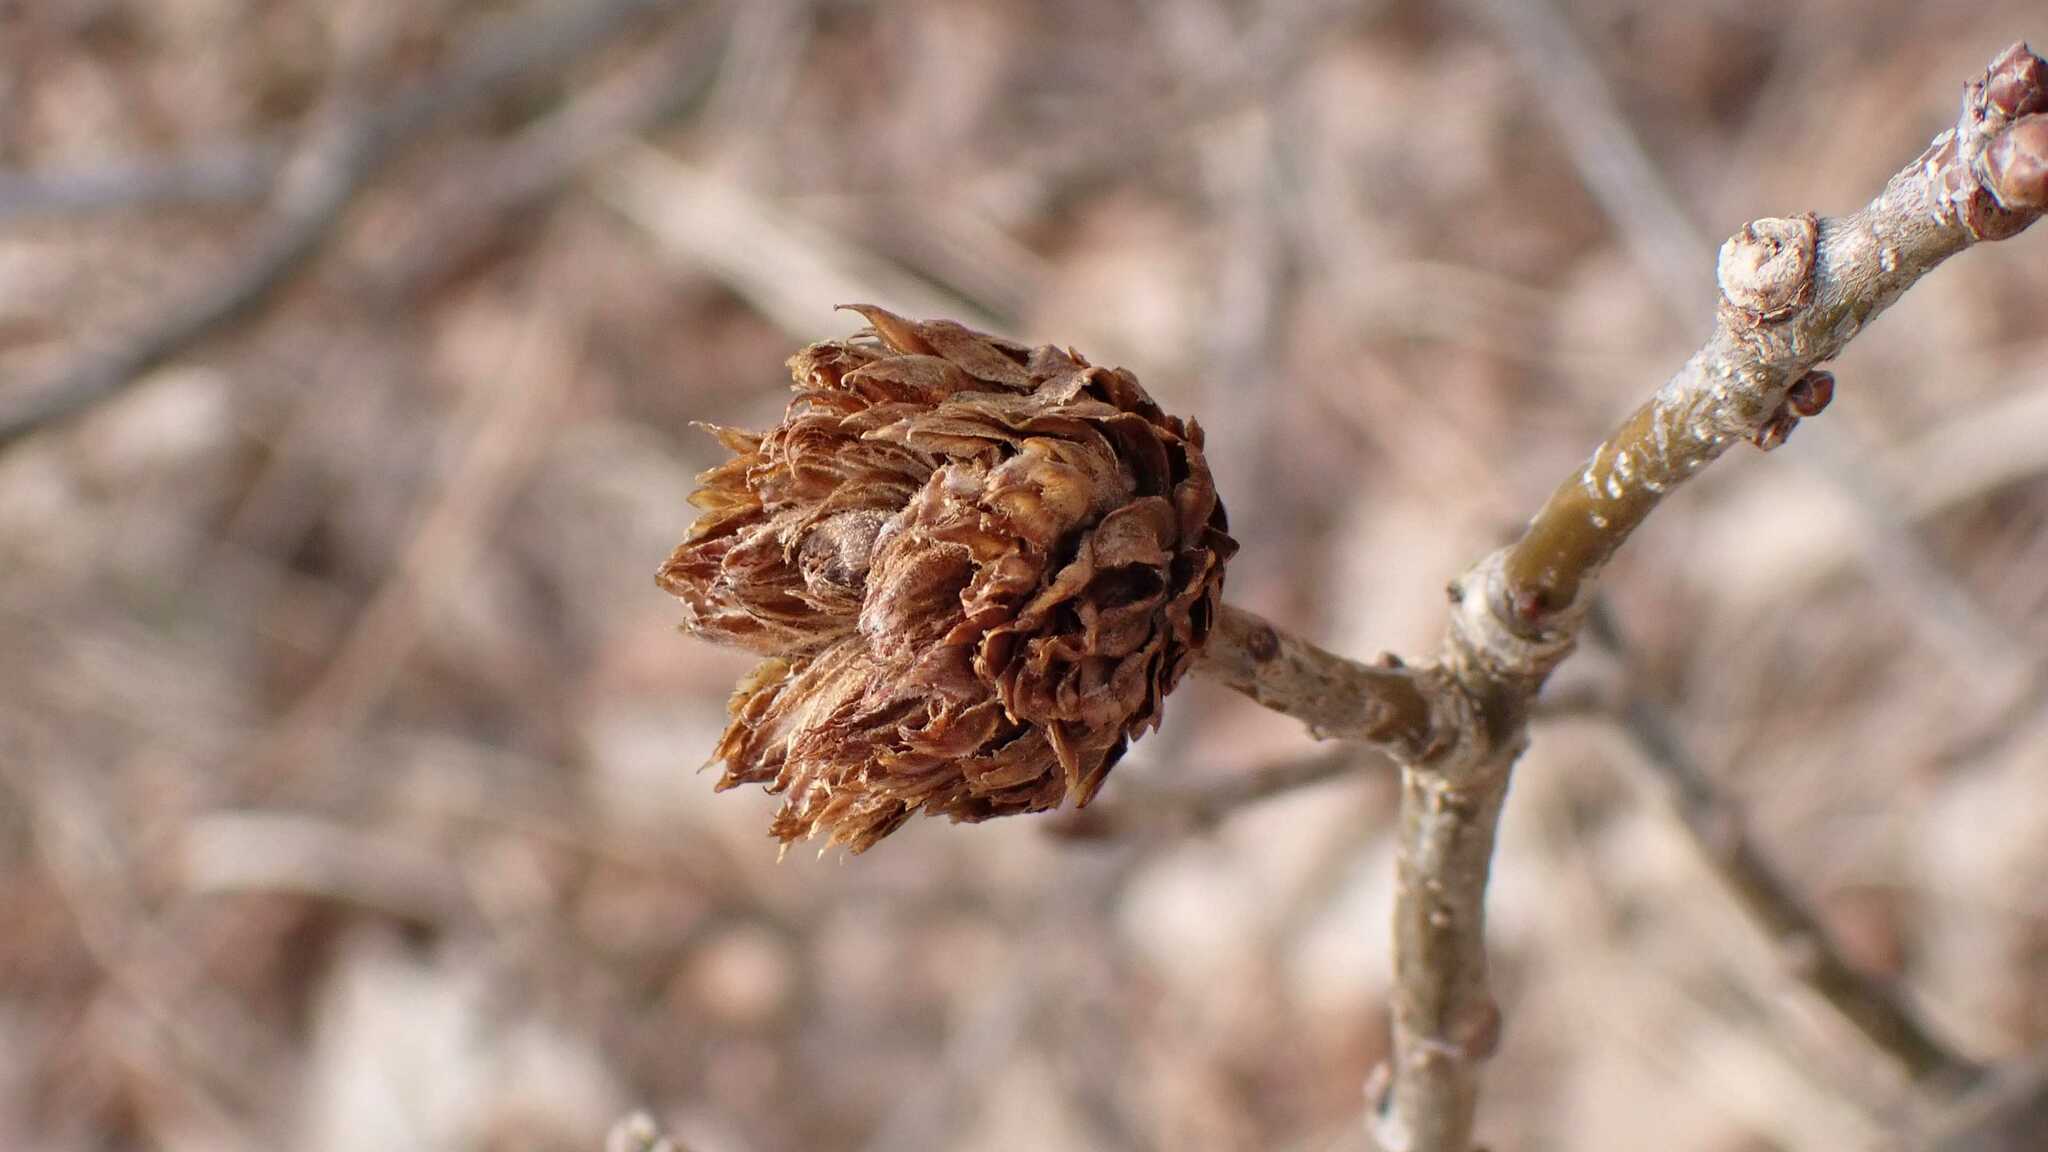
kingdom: Animalia
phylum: Arthropoda
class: Insecta
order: Hymenoptera
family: Cynipidae
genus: Andricus
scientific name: Andricus foecundatrix
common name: Artichoke gall
